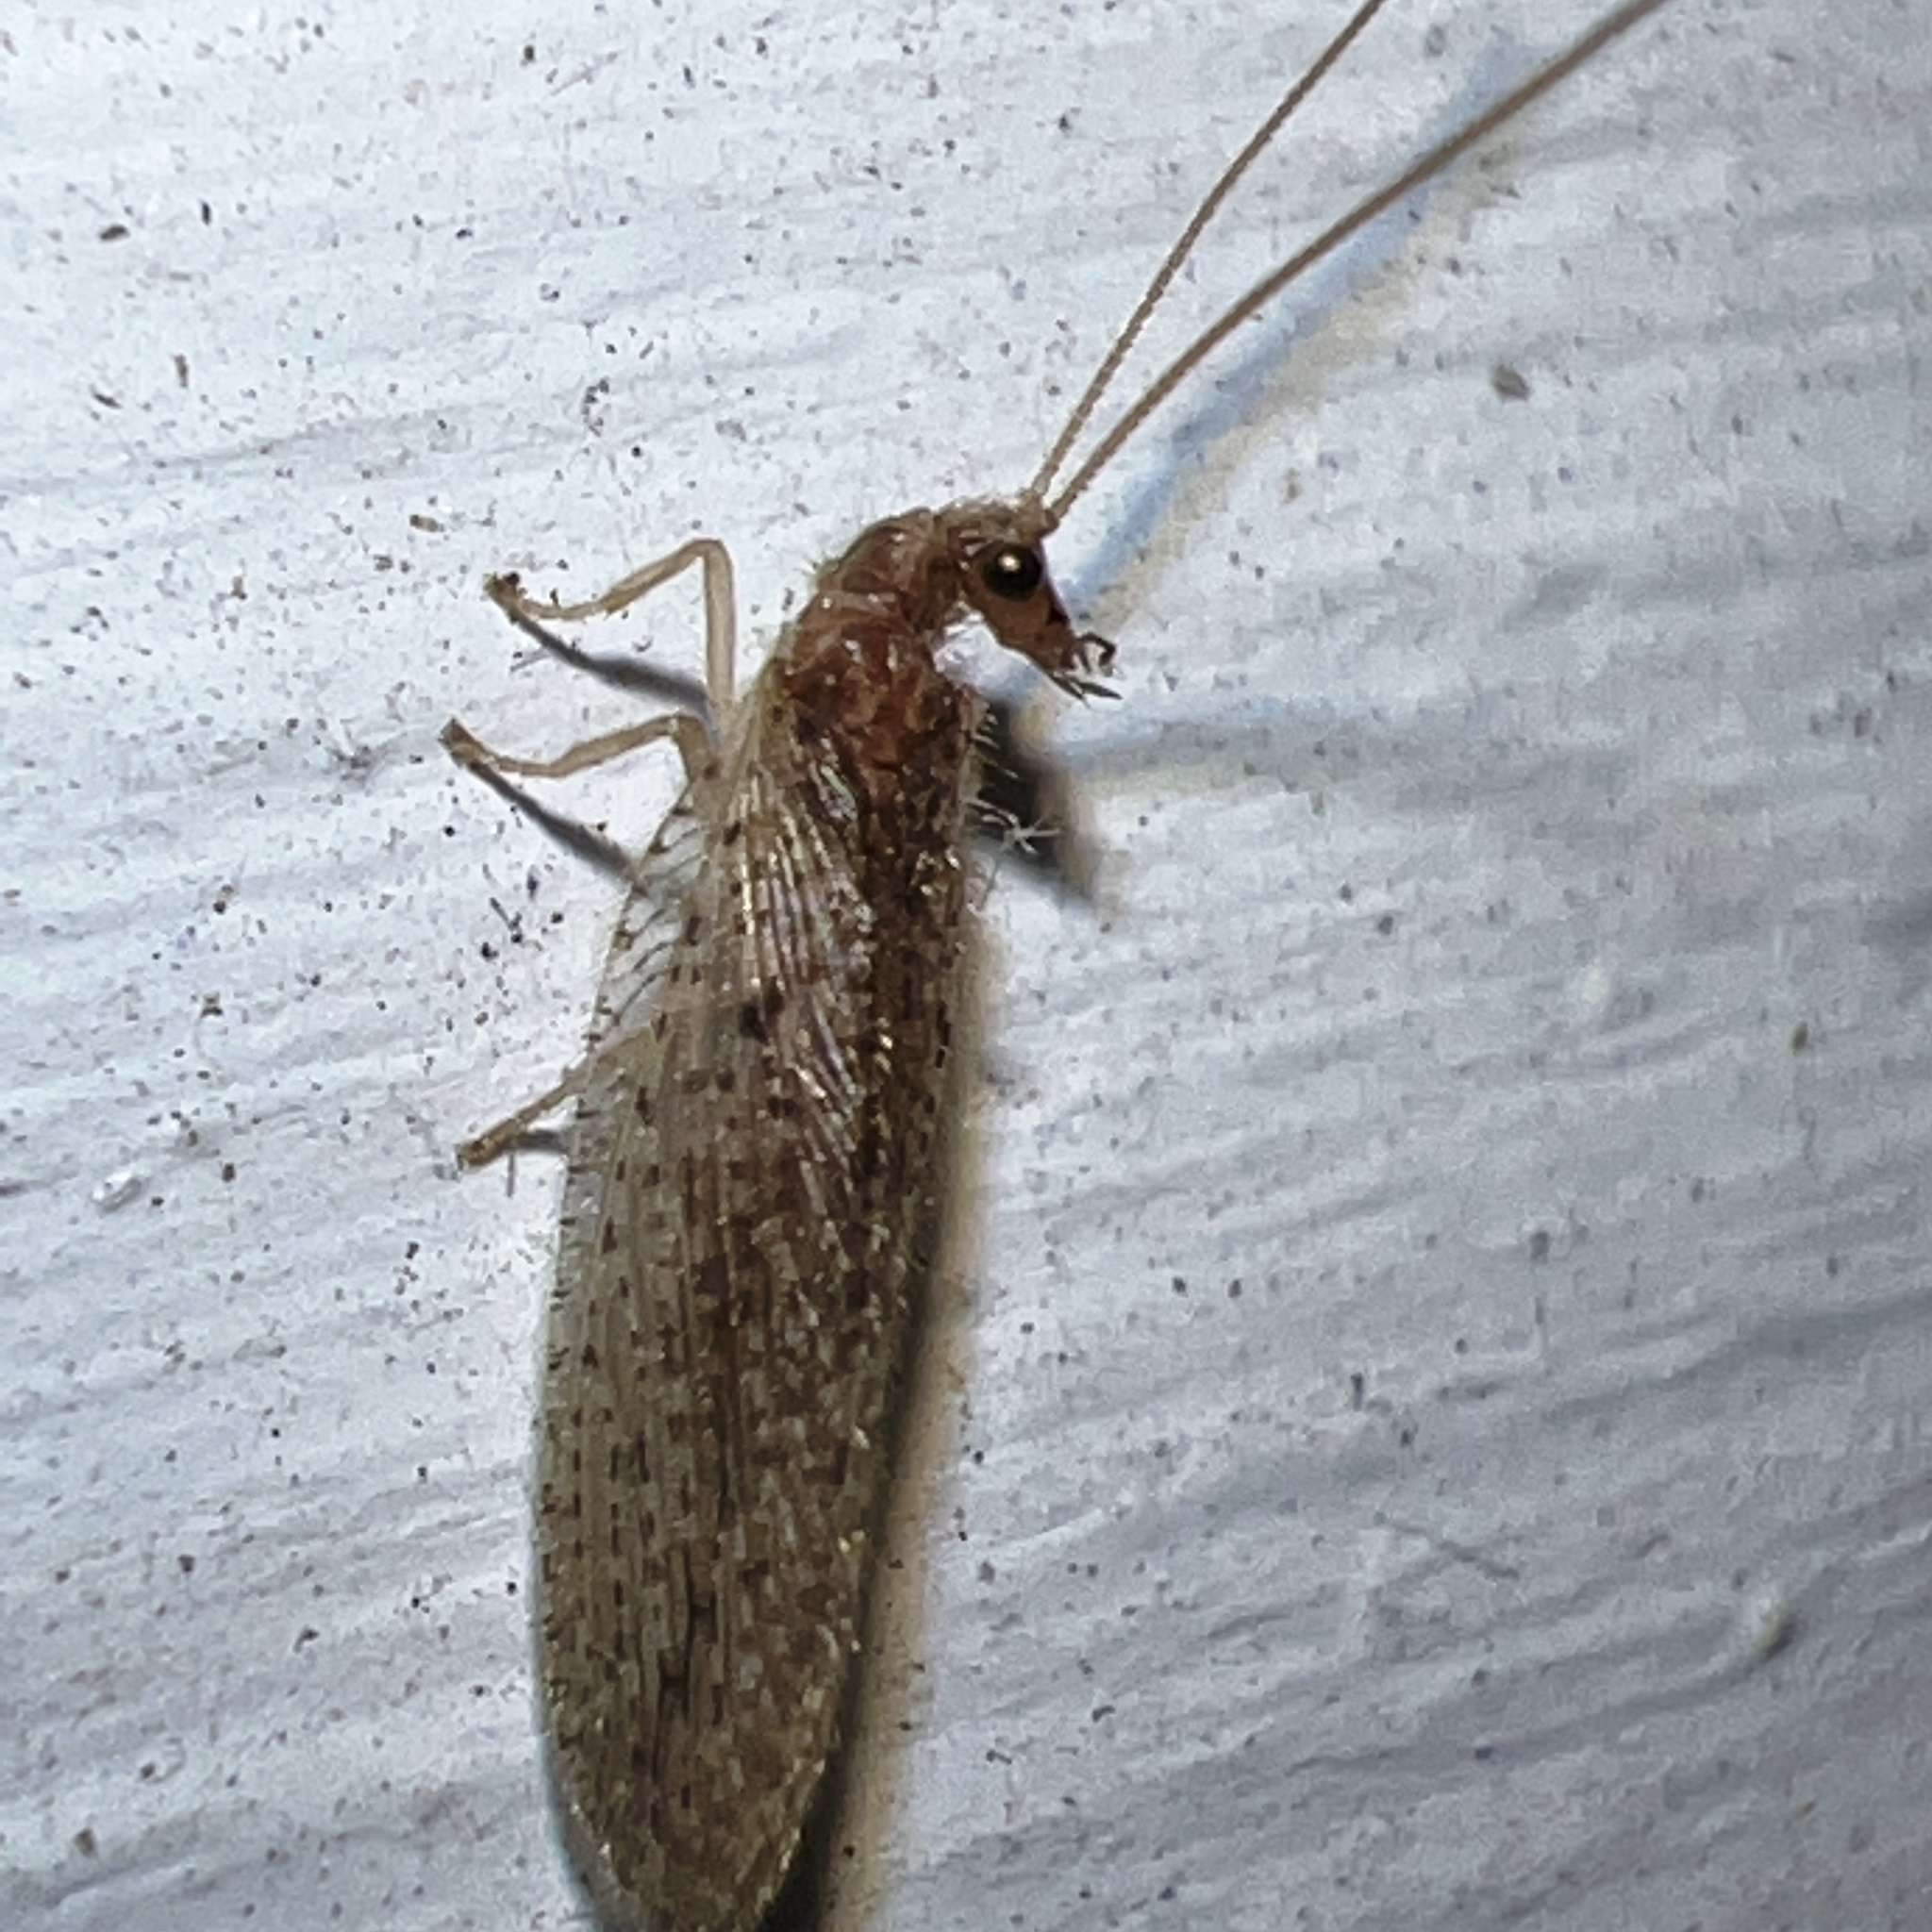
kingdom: Animalia
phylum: Arthropoda
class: Insecta
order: Neuroptera
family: Hemerobiidae
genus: Micromus
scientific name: Micromus subanticus
